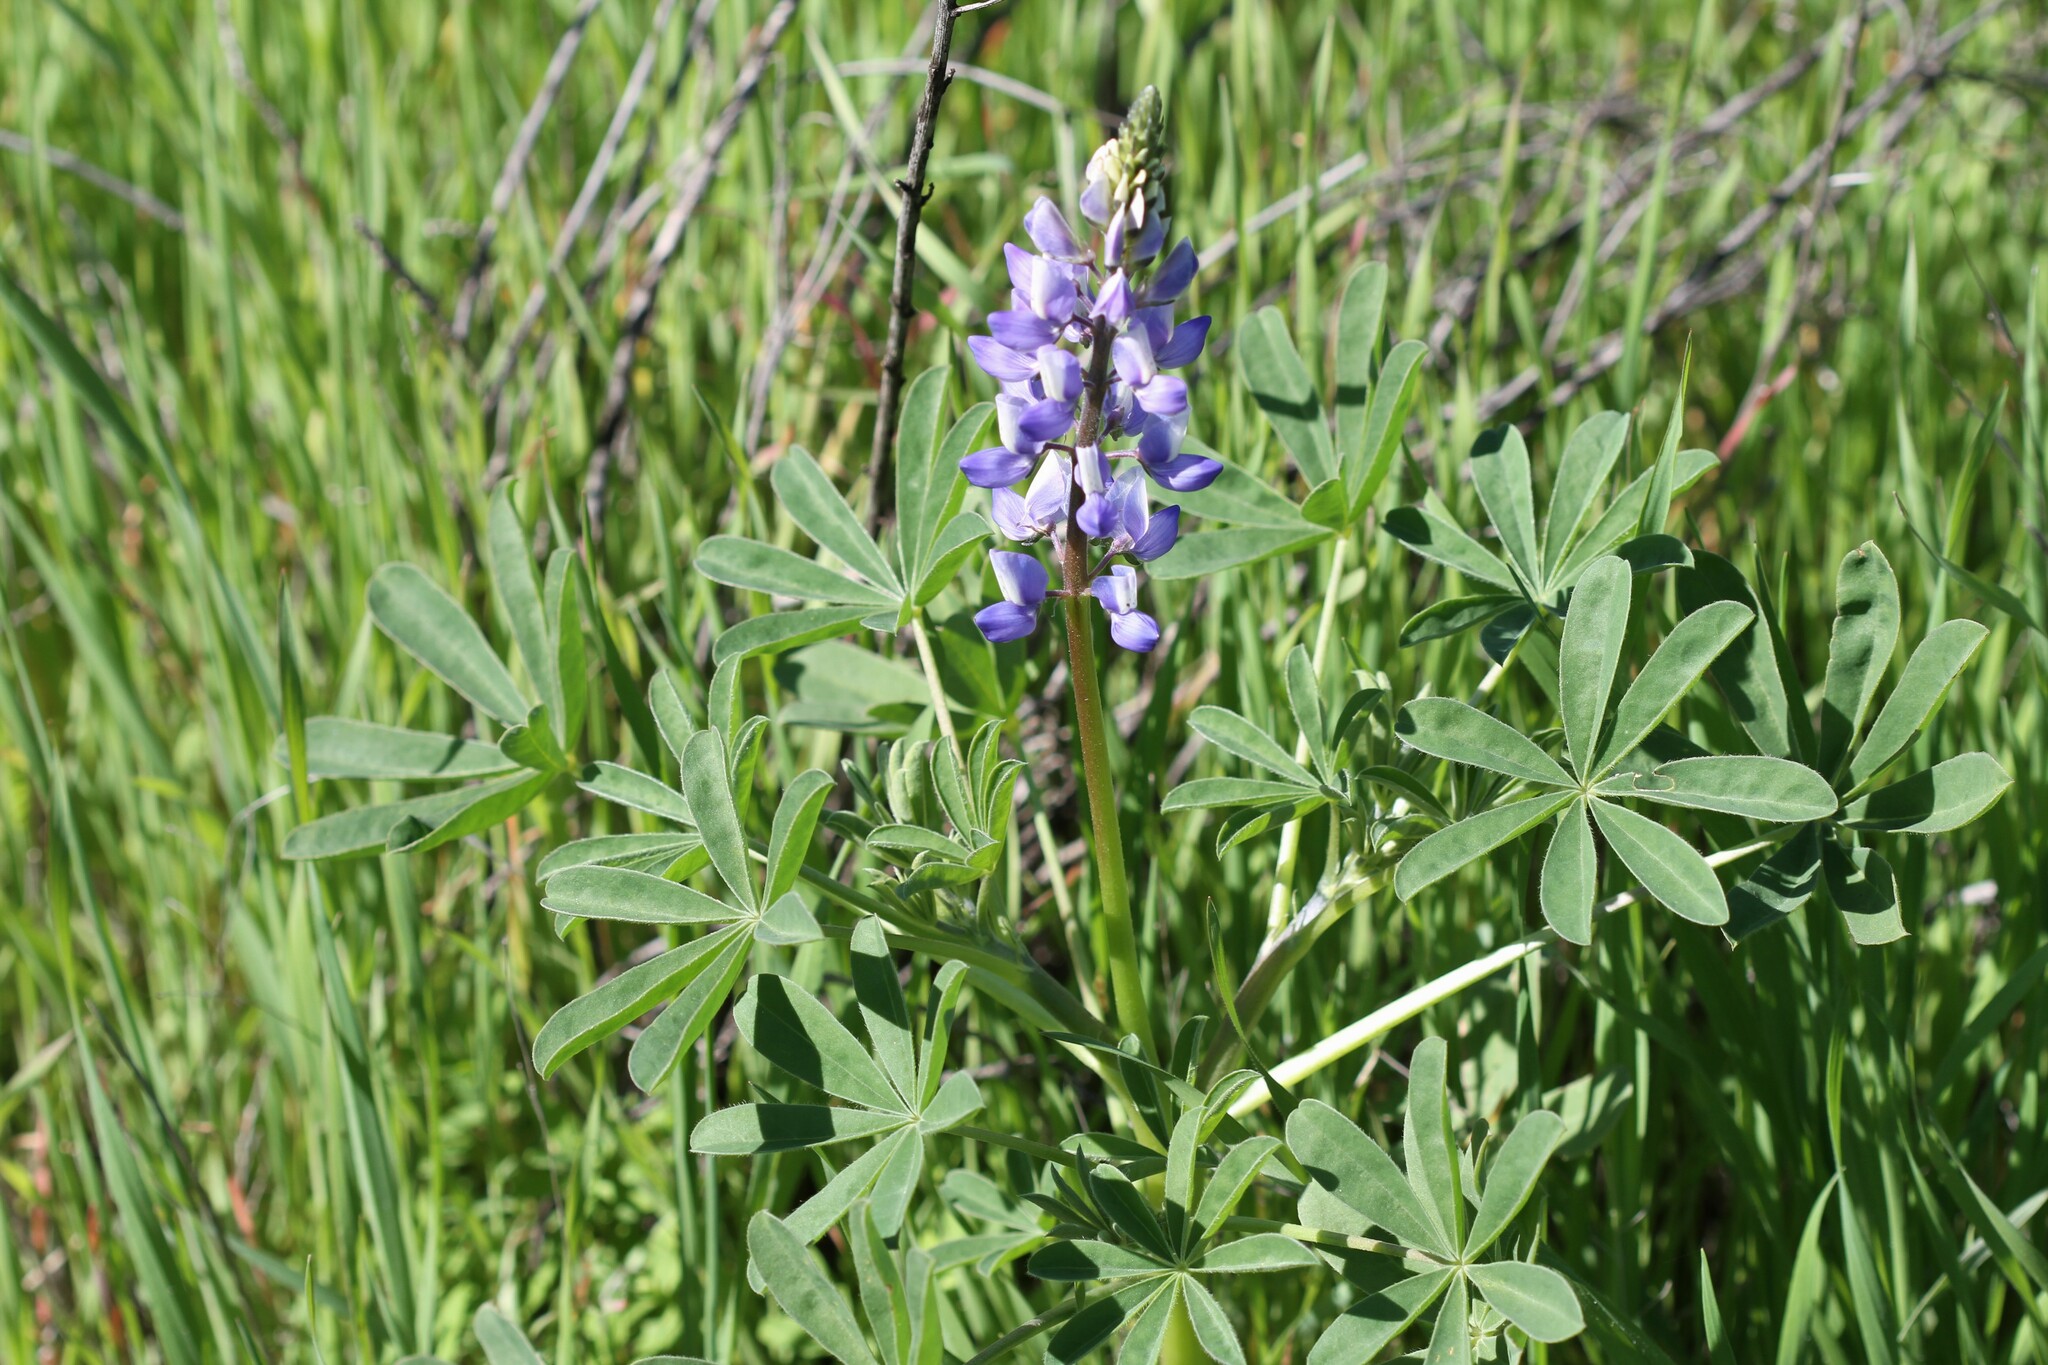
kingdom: Plantae
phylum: Tracheophyta
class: Magnoliopsida
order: Fabales
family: Fabaceae
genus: Lupinus
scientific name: Lupinus succulentus
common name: Arroyo lupine
